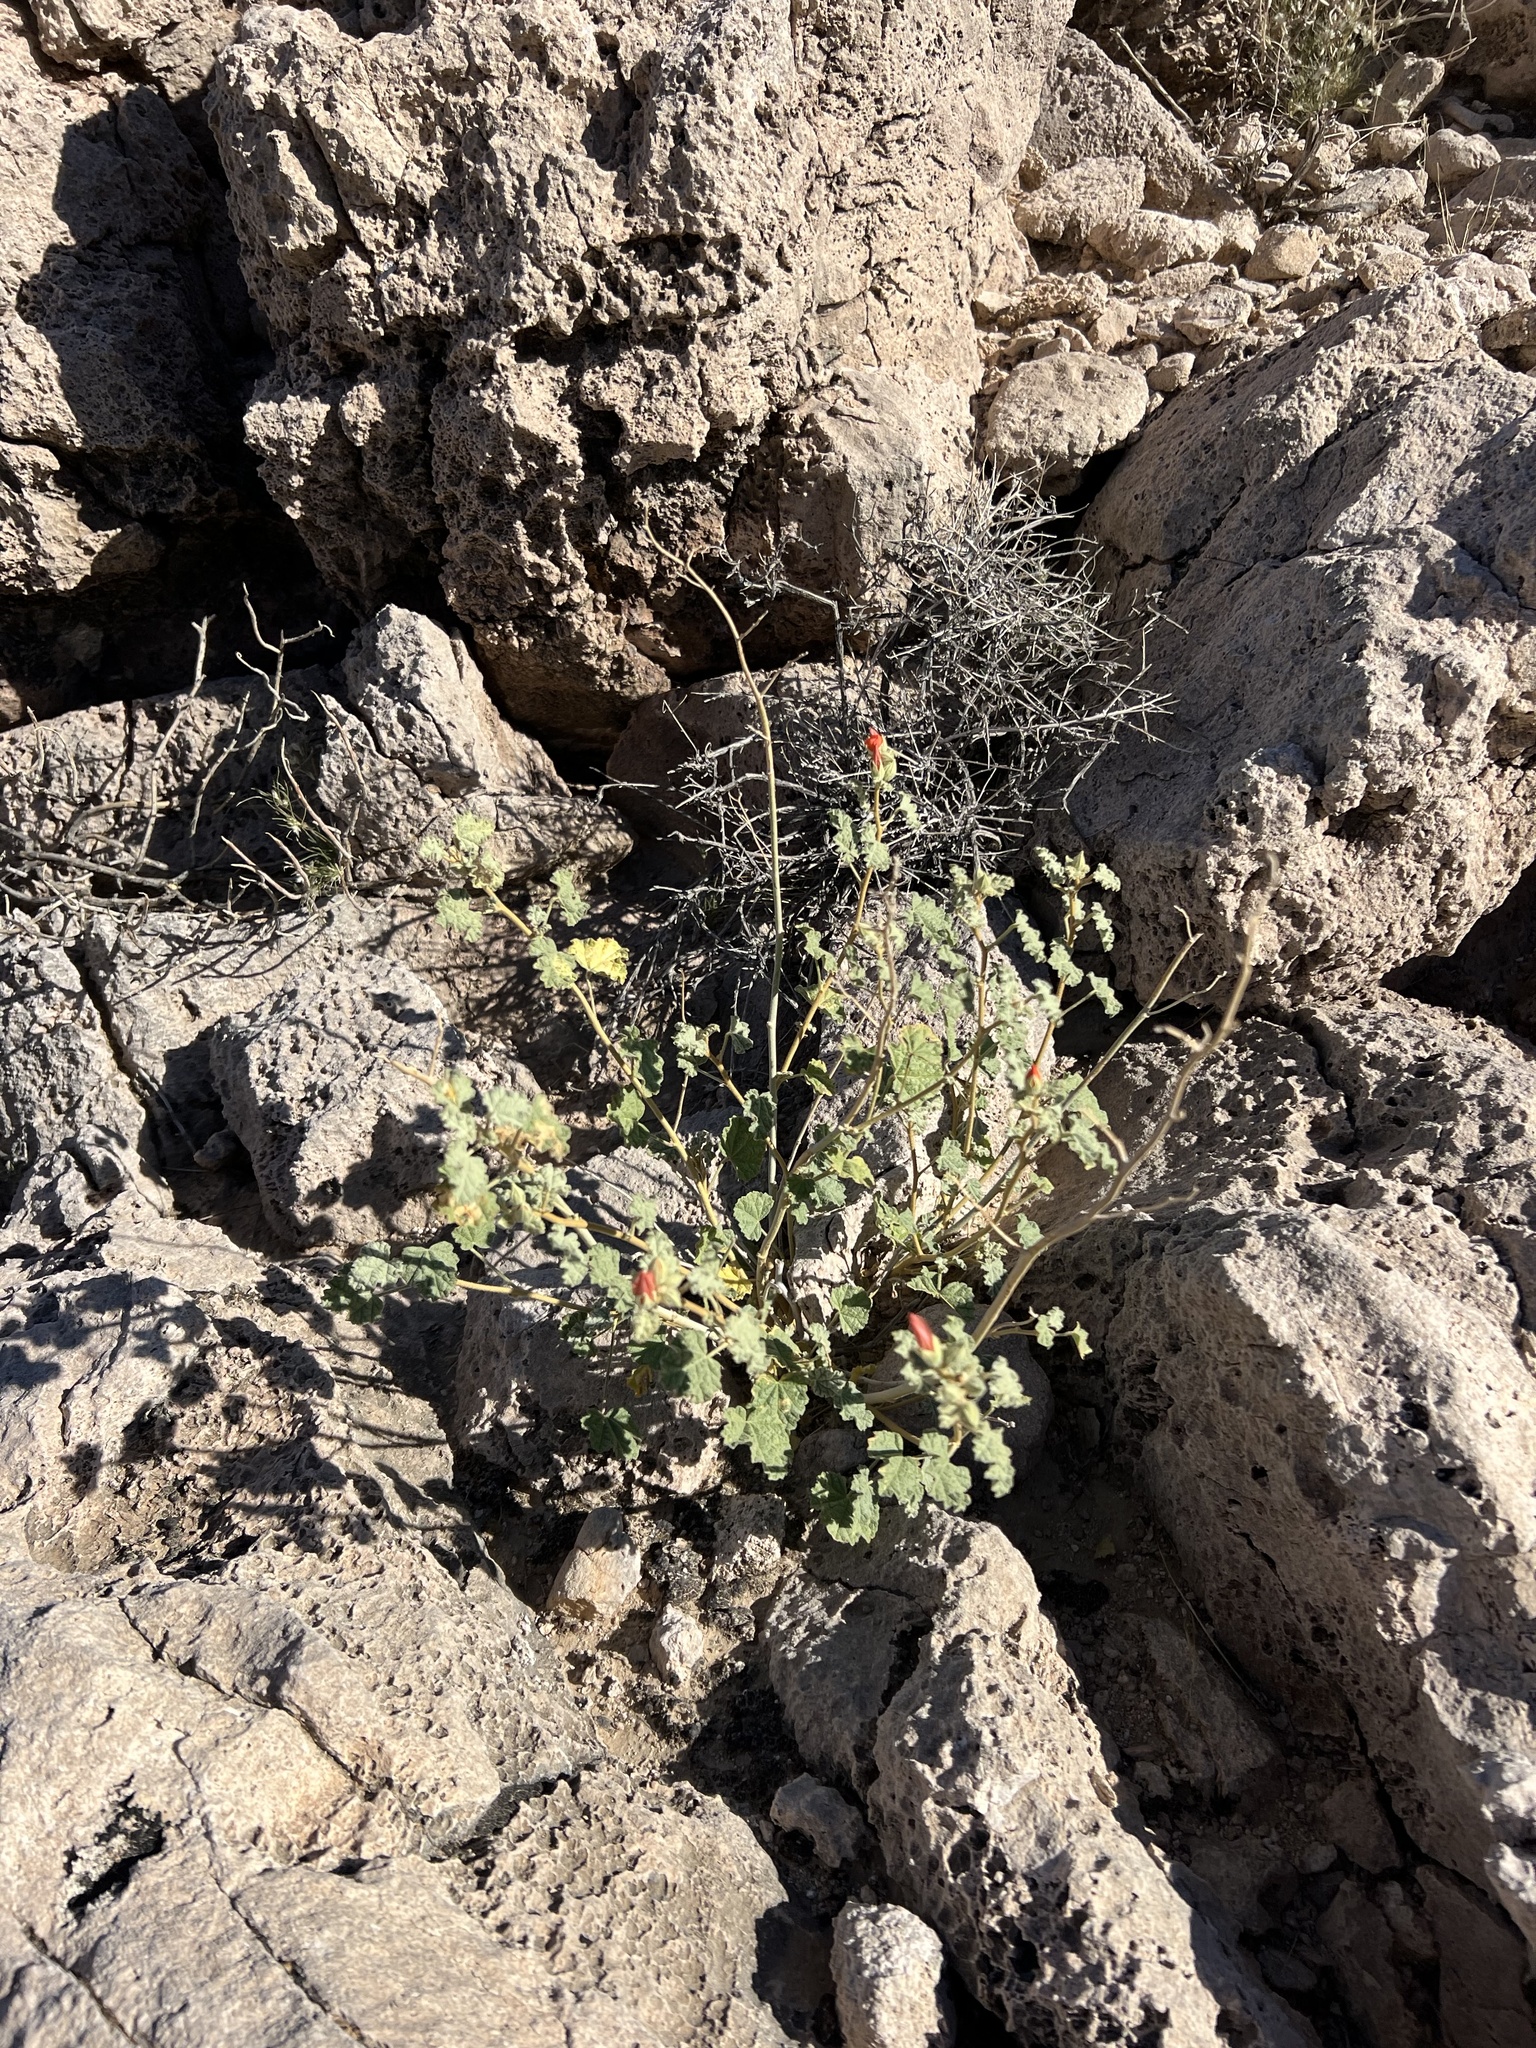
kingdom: Plantae
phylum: Tracheophyta
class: Magnoliopsida
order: Malvales
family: Malvaceae
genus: Sphaeralcea
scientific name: Sphaeralcea ambigua
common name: Apricot globe-mallow
